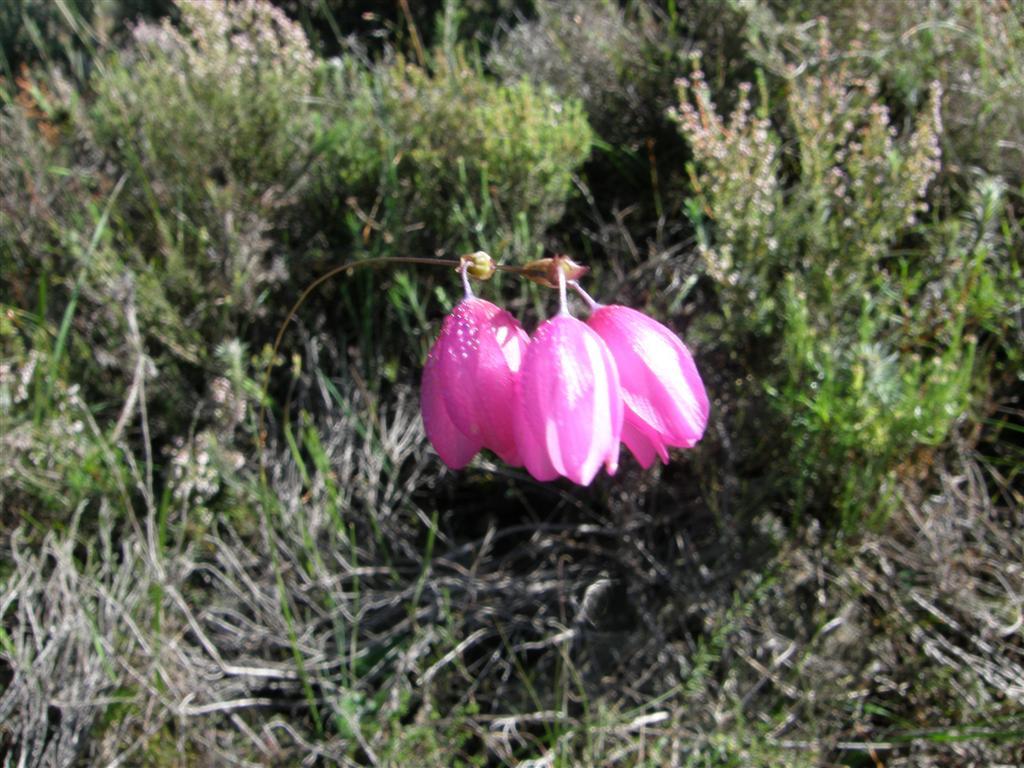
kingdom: Plantae
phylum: Tracheophyta
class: Liliopsida
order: Asparagales
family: Iridaceae
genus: Ixia
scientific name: Ixia micrandra
